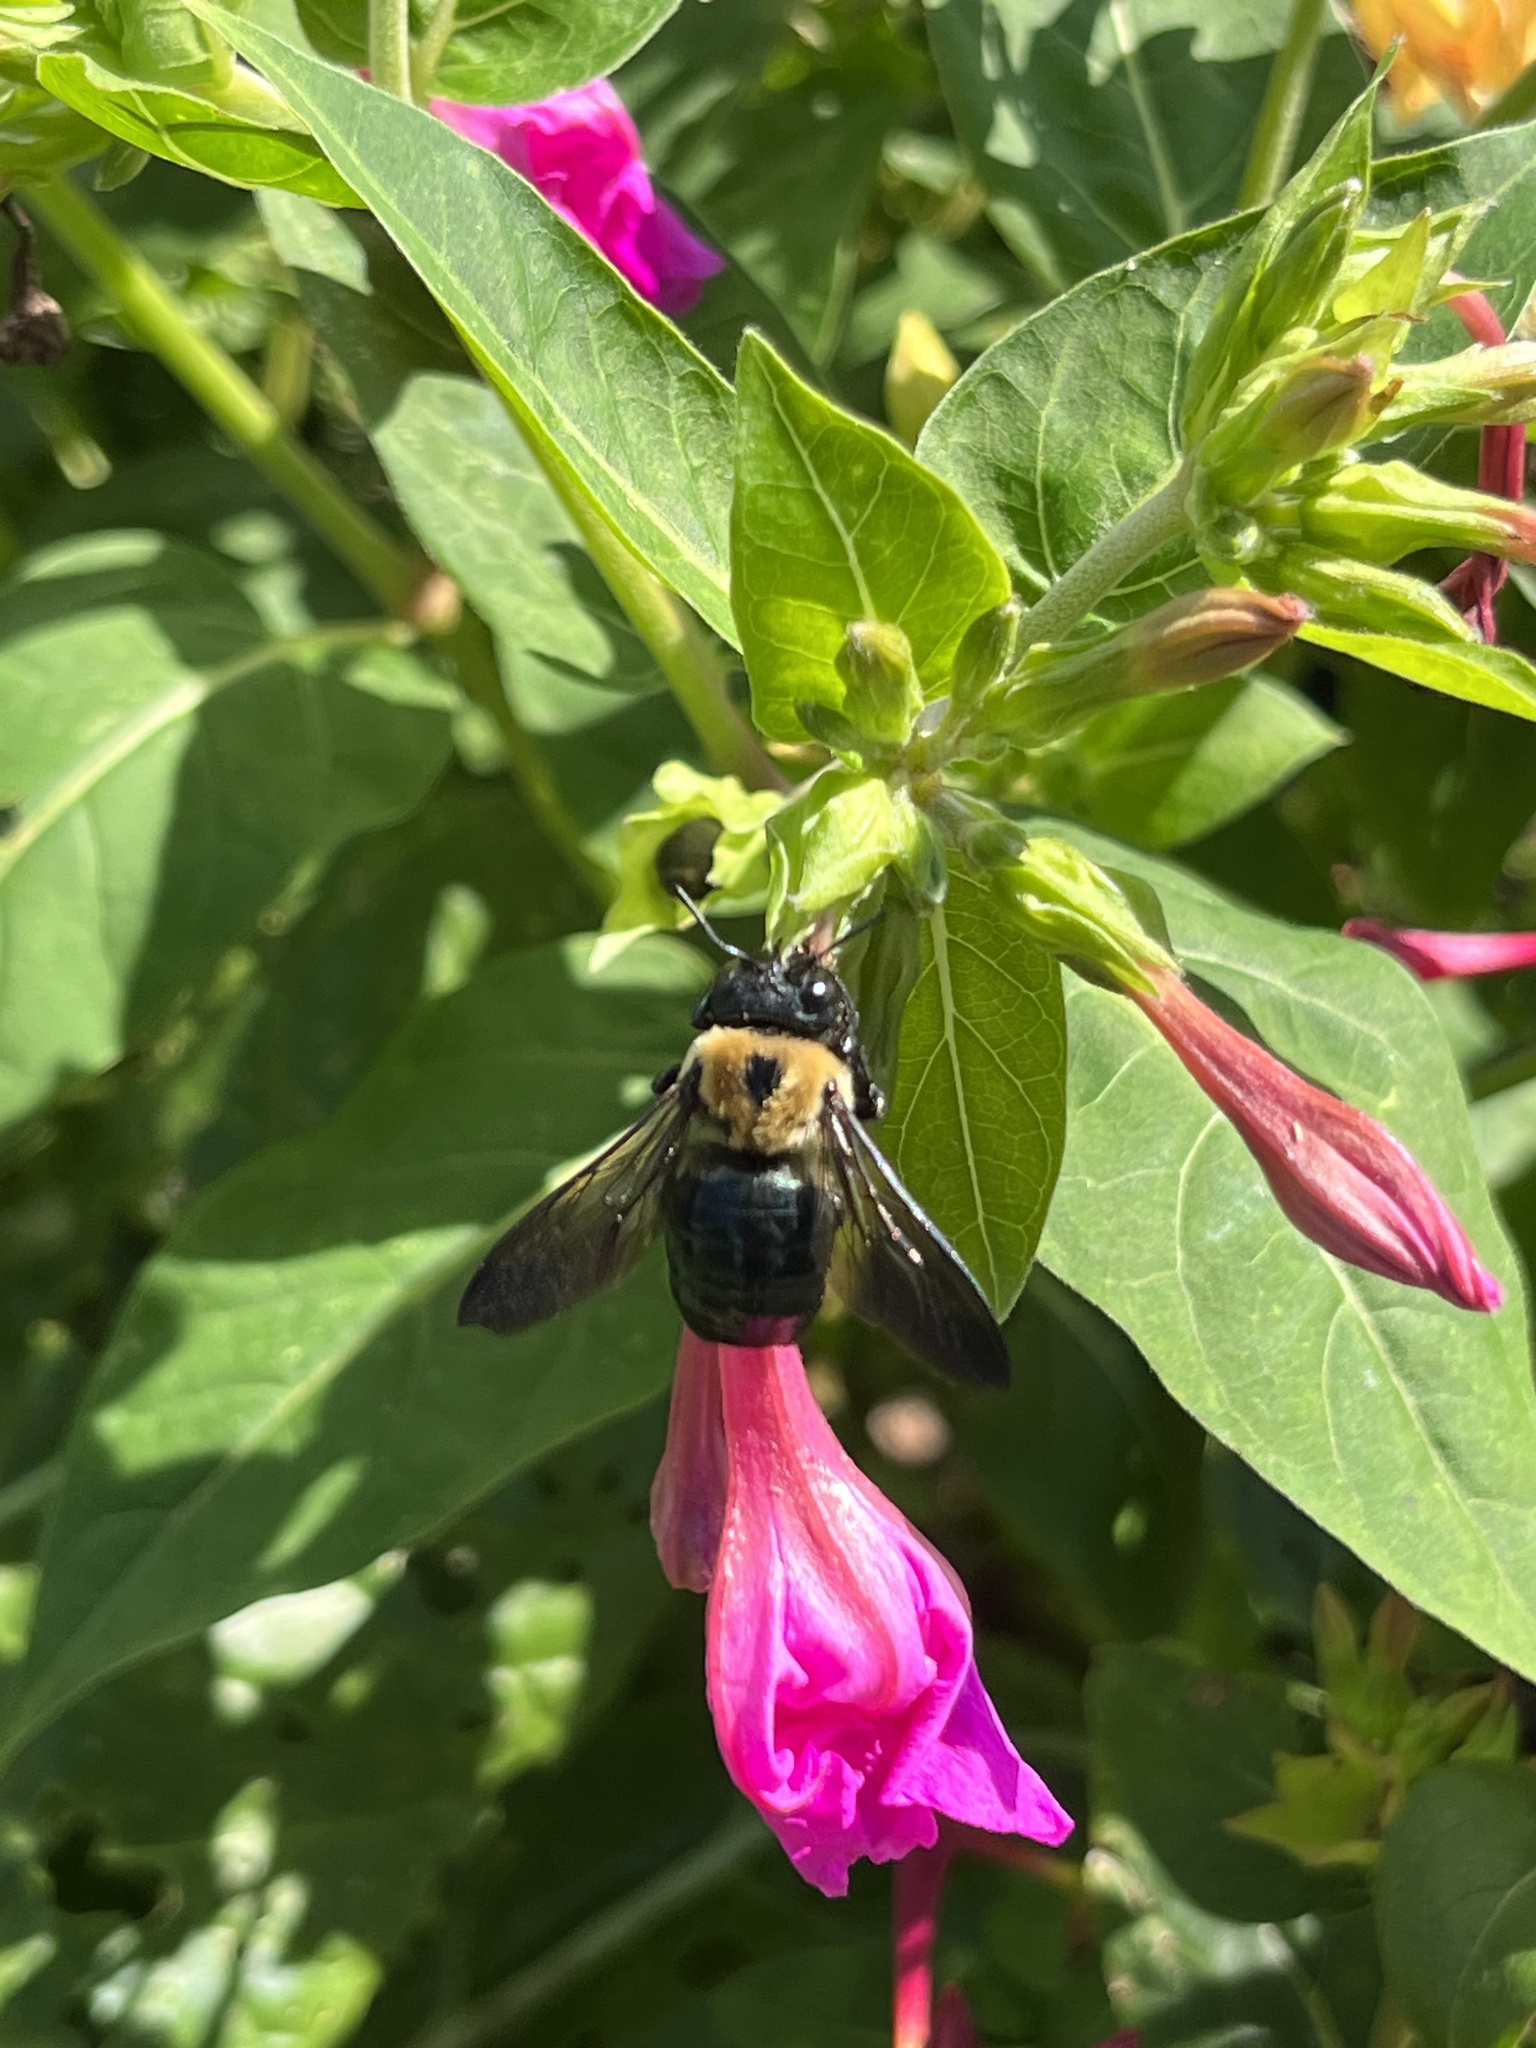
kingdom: Animalia
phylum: Arthropoda
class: Insecta
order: Hymenoptera
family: Apidae
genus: Xylocopa
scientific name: Xylocopa virginica
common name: Carpenter bee
